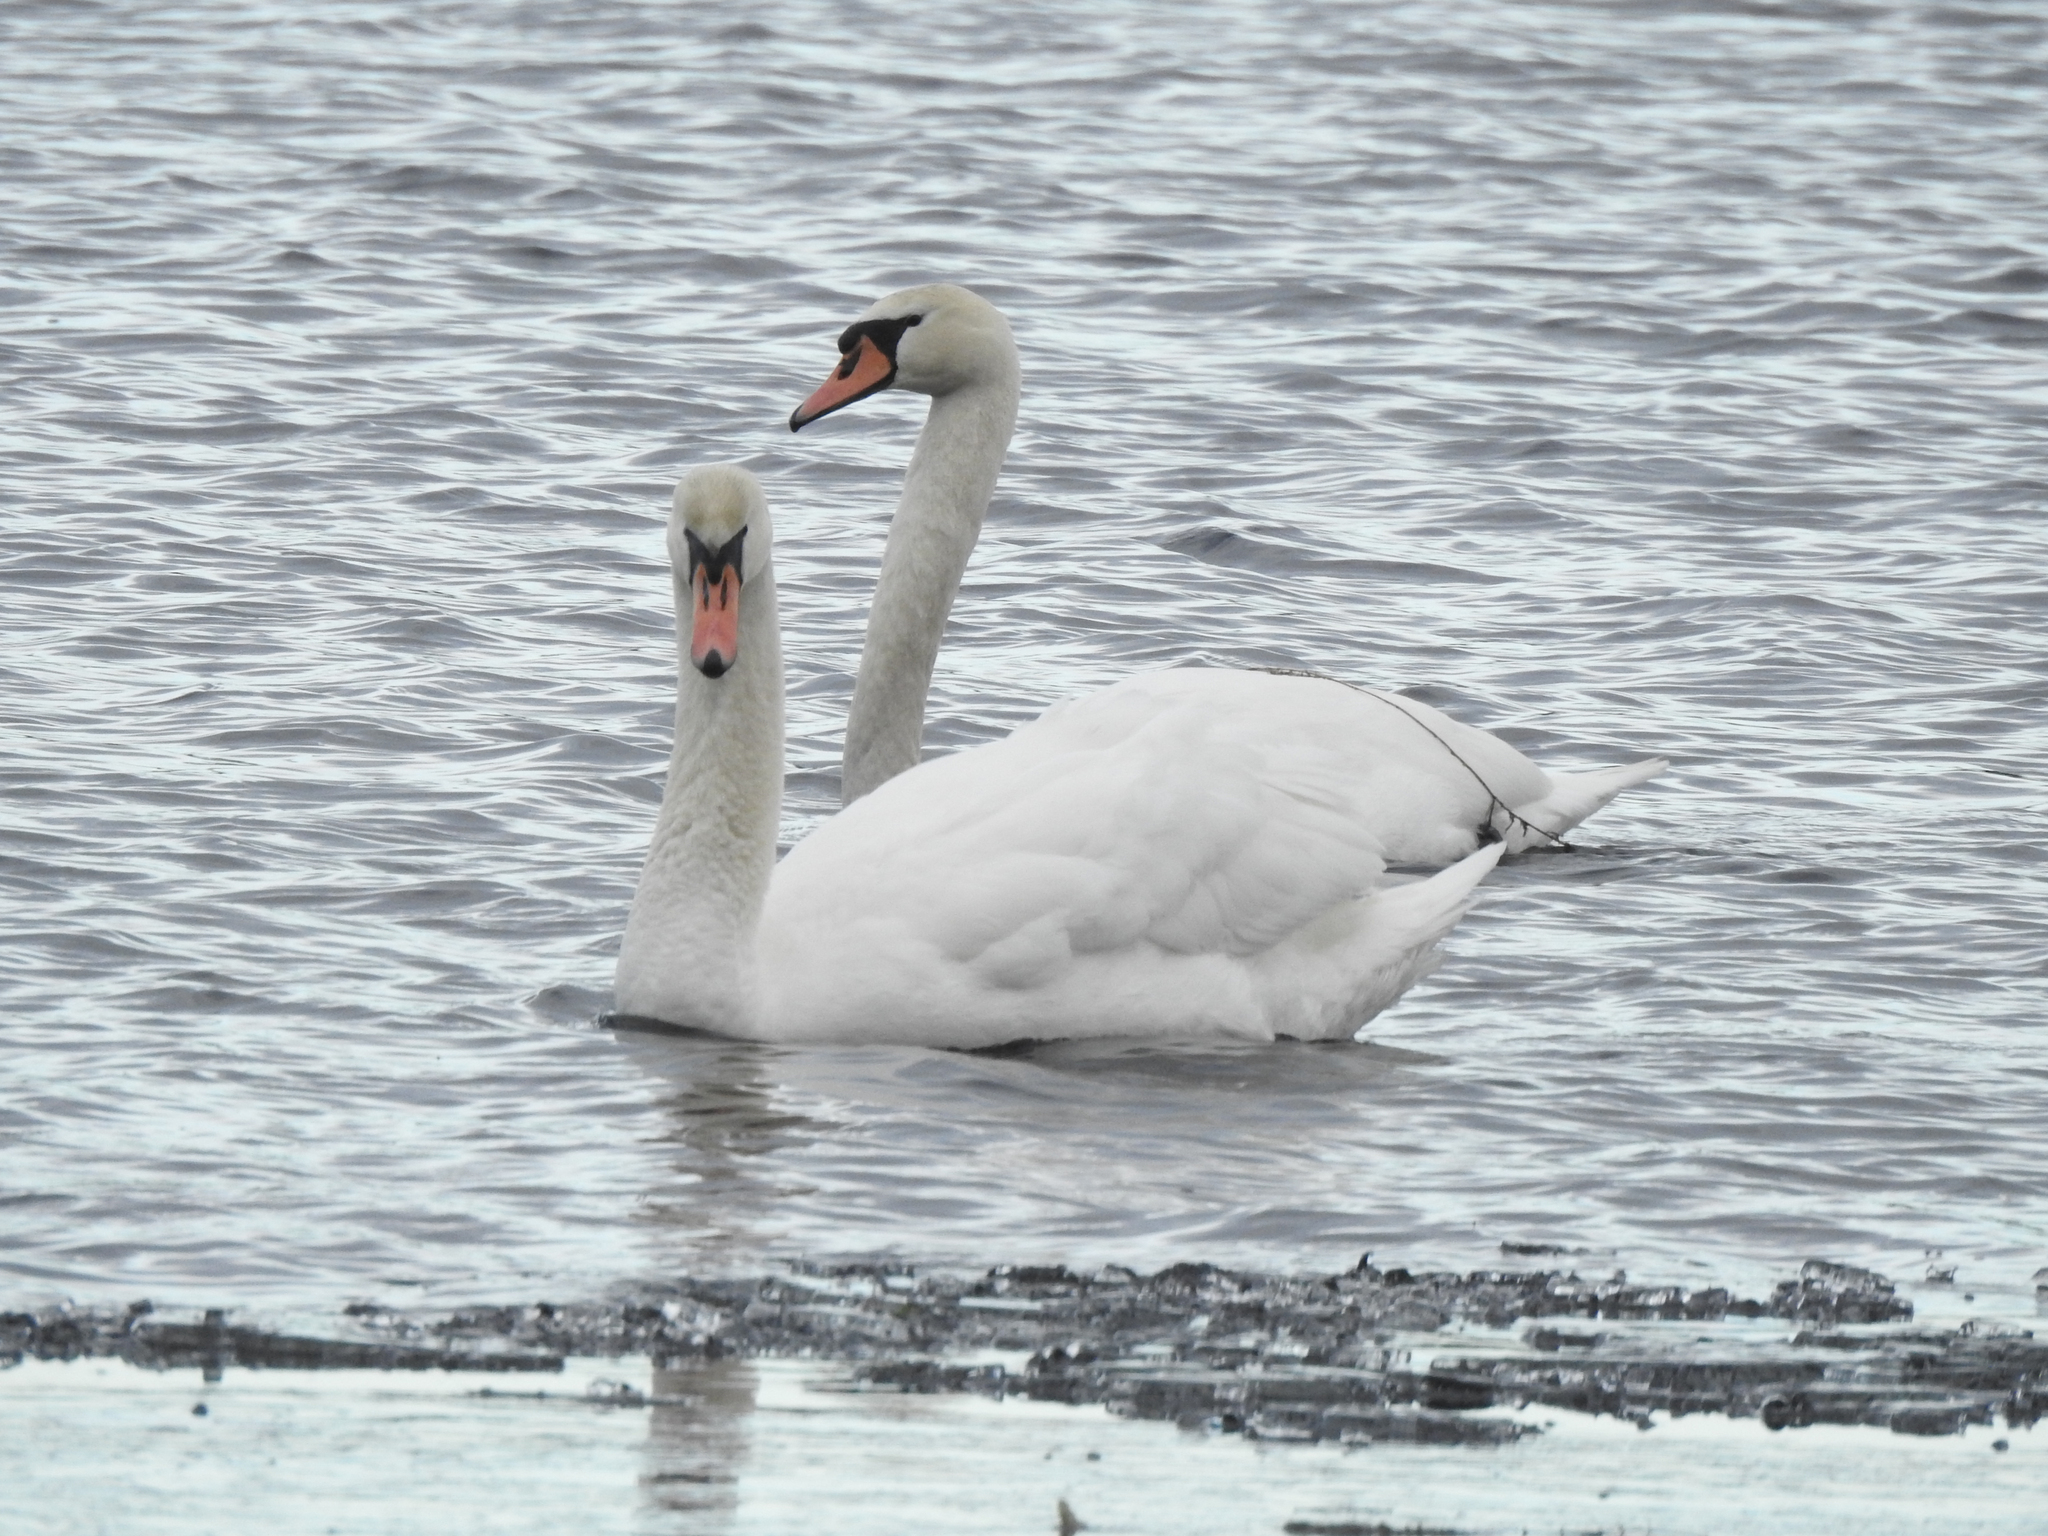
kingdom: Animalia
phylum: Chordata
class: Aves
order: Anseriformes
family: Anatidae
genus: Cygnus
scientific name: Cygnus olor
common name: Mute swan
